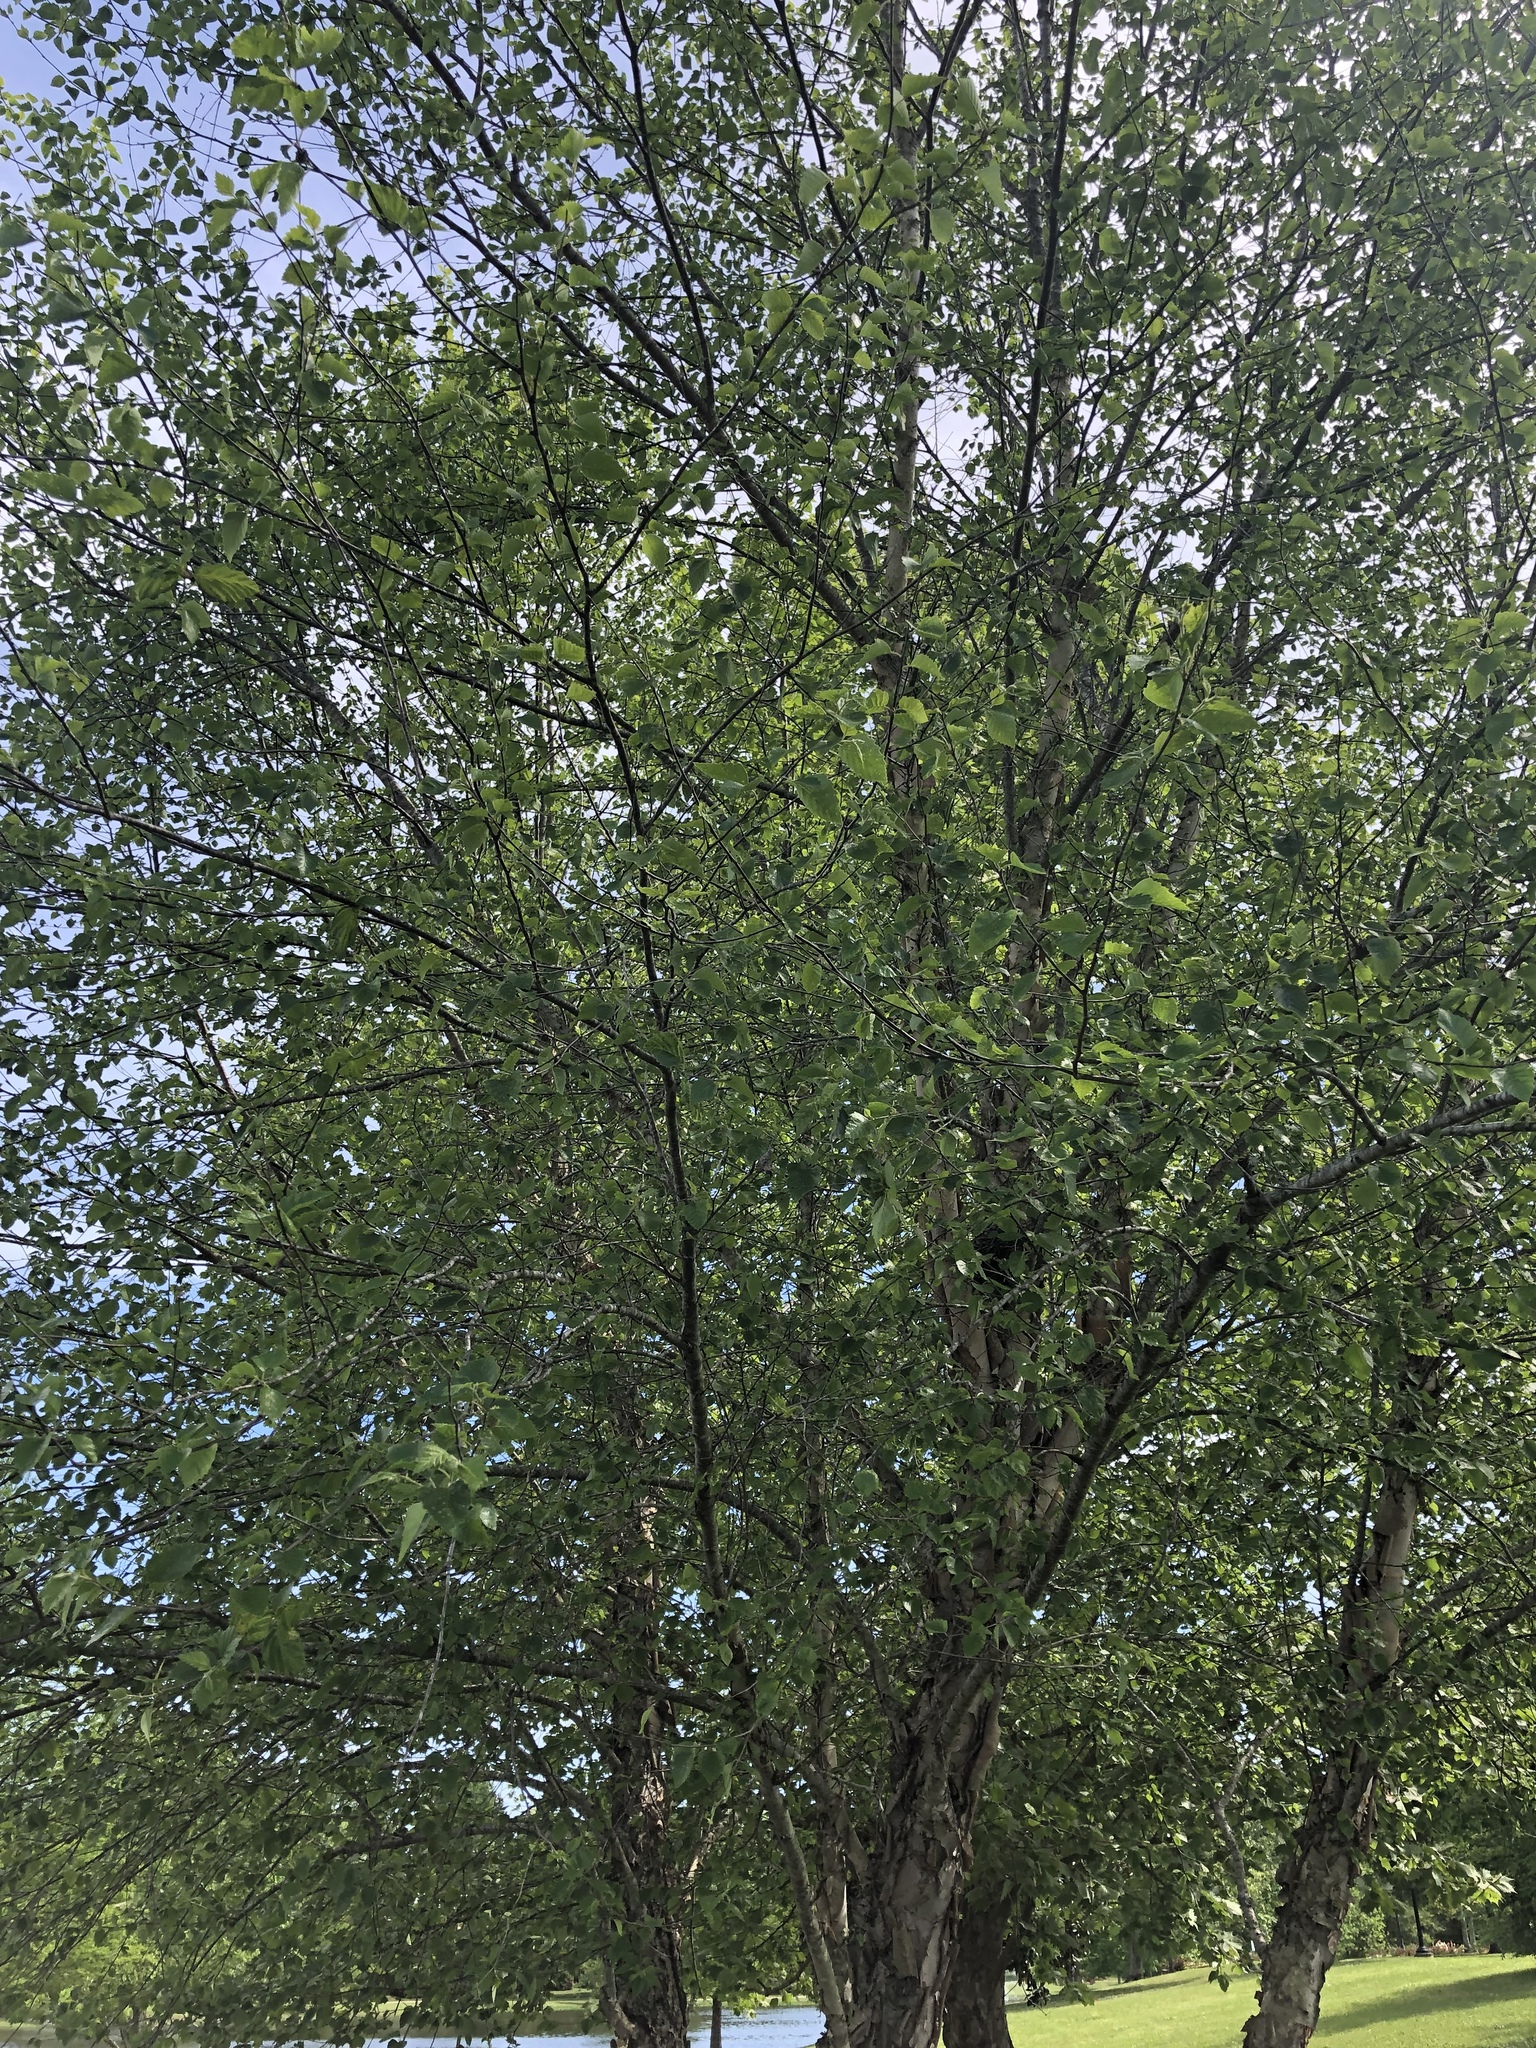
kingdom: Plantae
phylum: Tracheophyta
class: Magnoliopsida
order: Fagales
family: Betulaceae
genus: Betula
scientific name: Betula nigra
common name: Black birch
